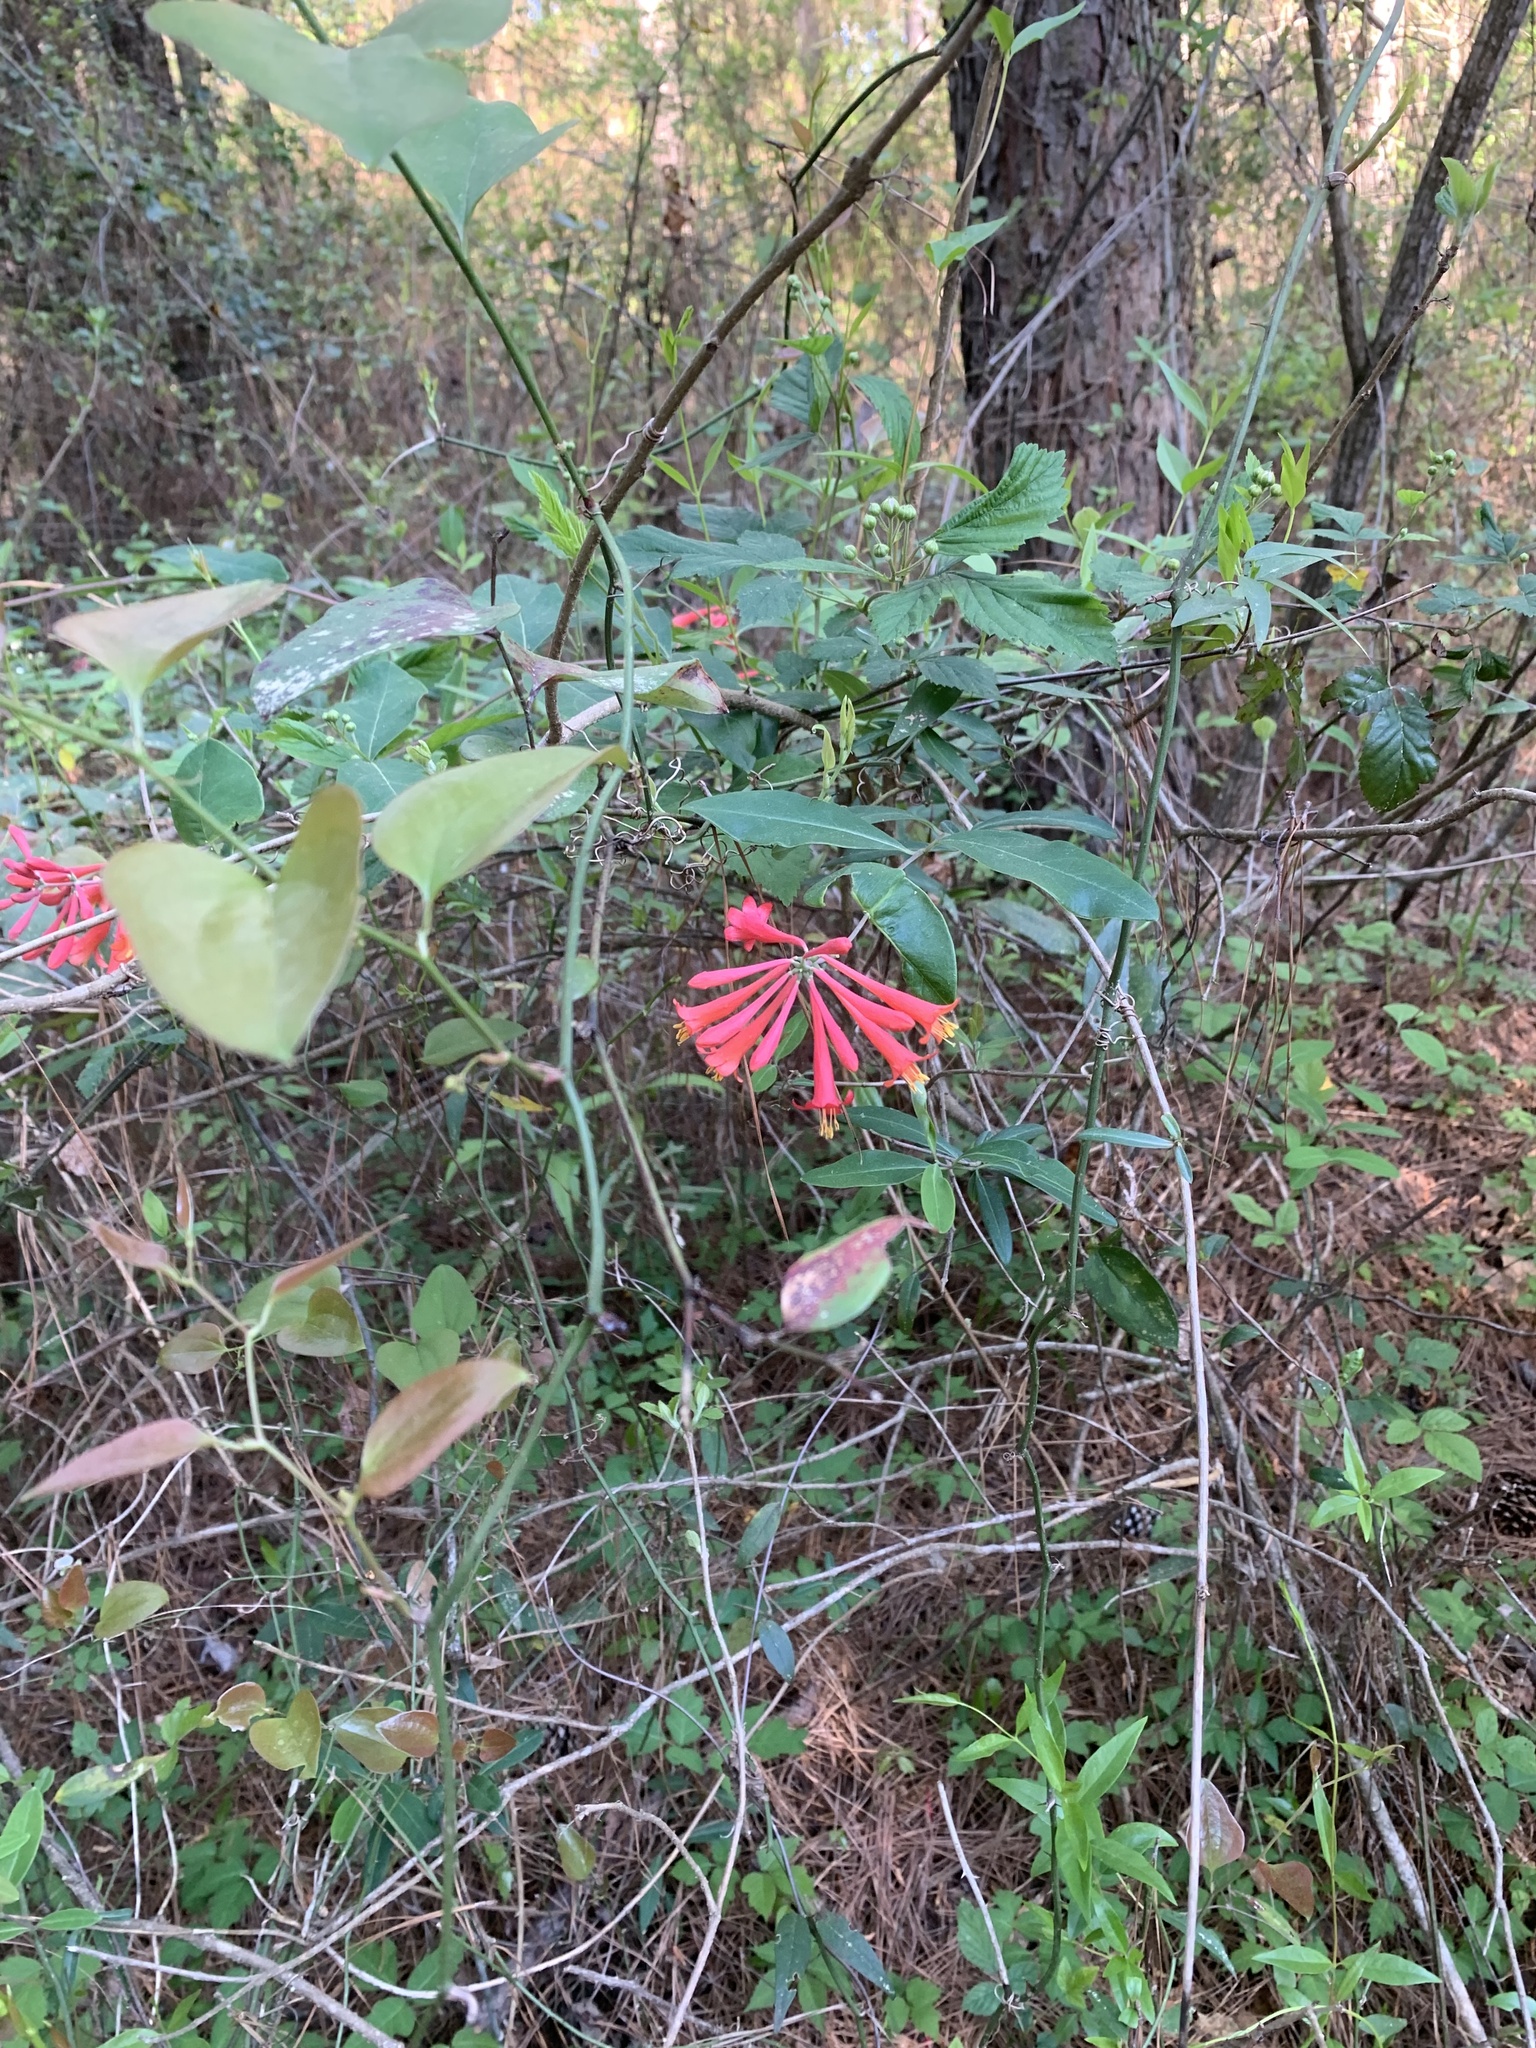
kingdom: Plantae
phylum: Tracheophyta
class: Magnoliopsida
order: Dipsacales
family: Caprifoliaceae
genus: Lonicera
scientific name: Lonicera sempervirens
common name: Coral honeysuckle
